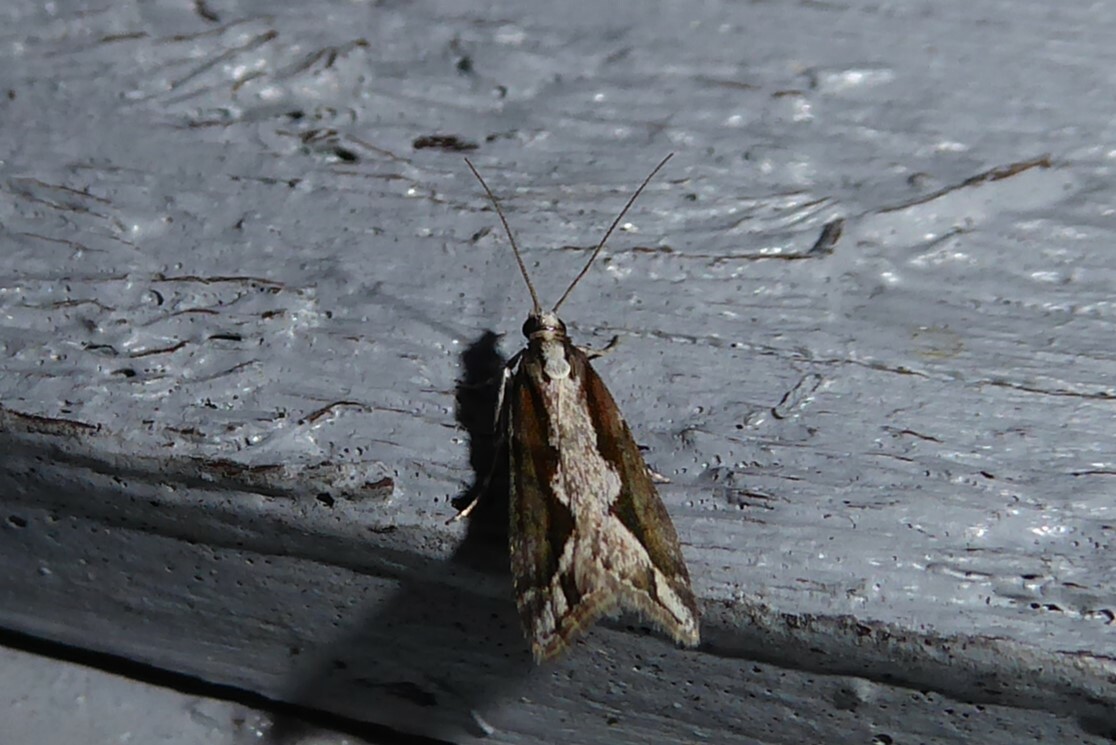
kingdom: Animalia
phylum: Arthropoda
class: Insecta
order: Lepidoptera
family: Crambidae
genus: Eudonia
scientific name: Eudonia steropaea
